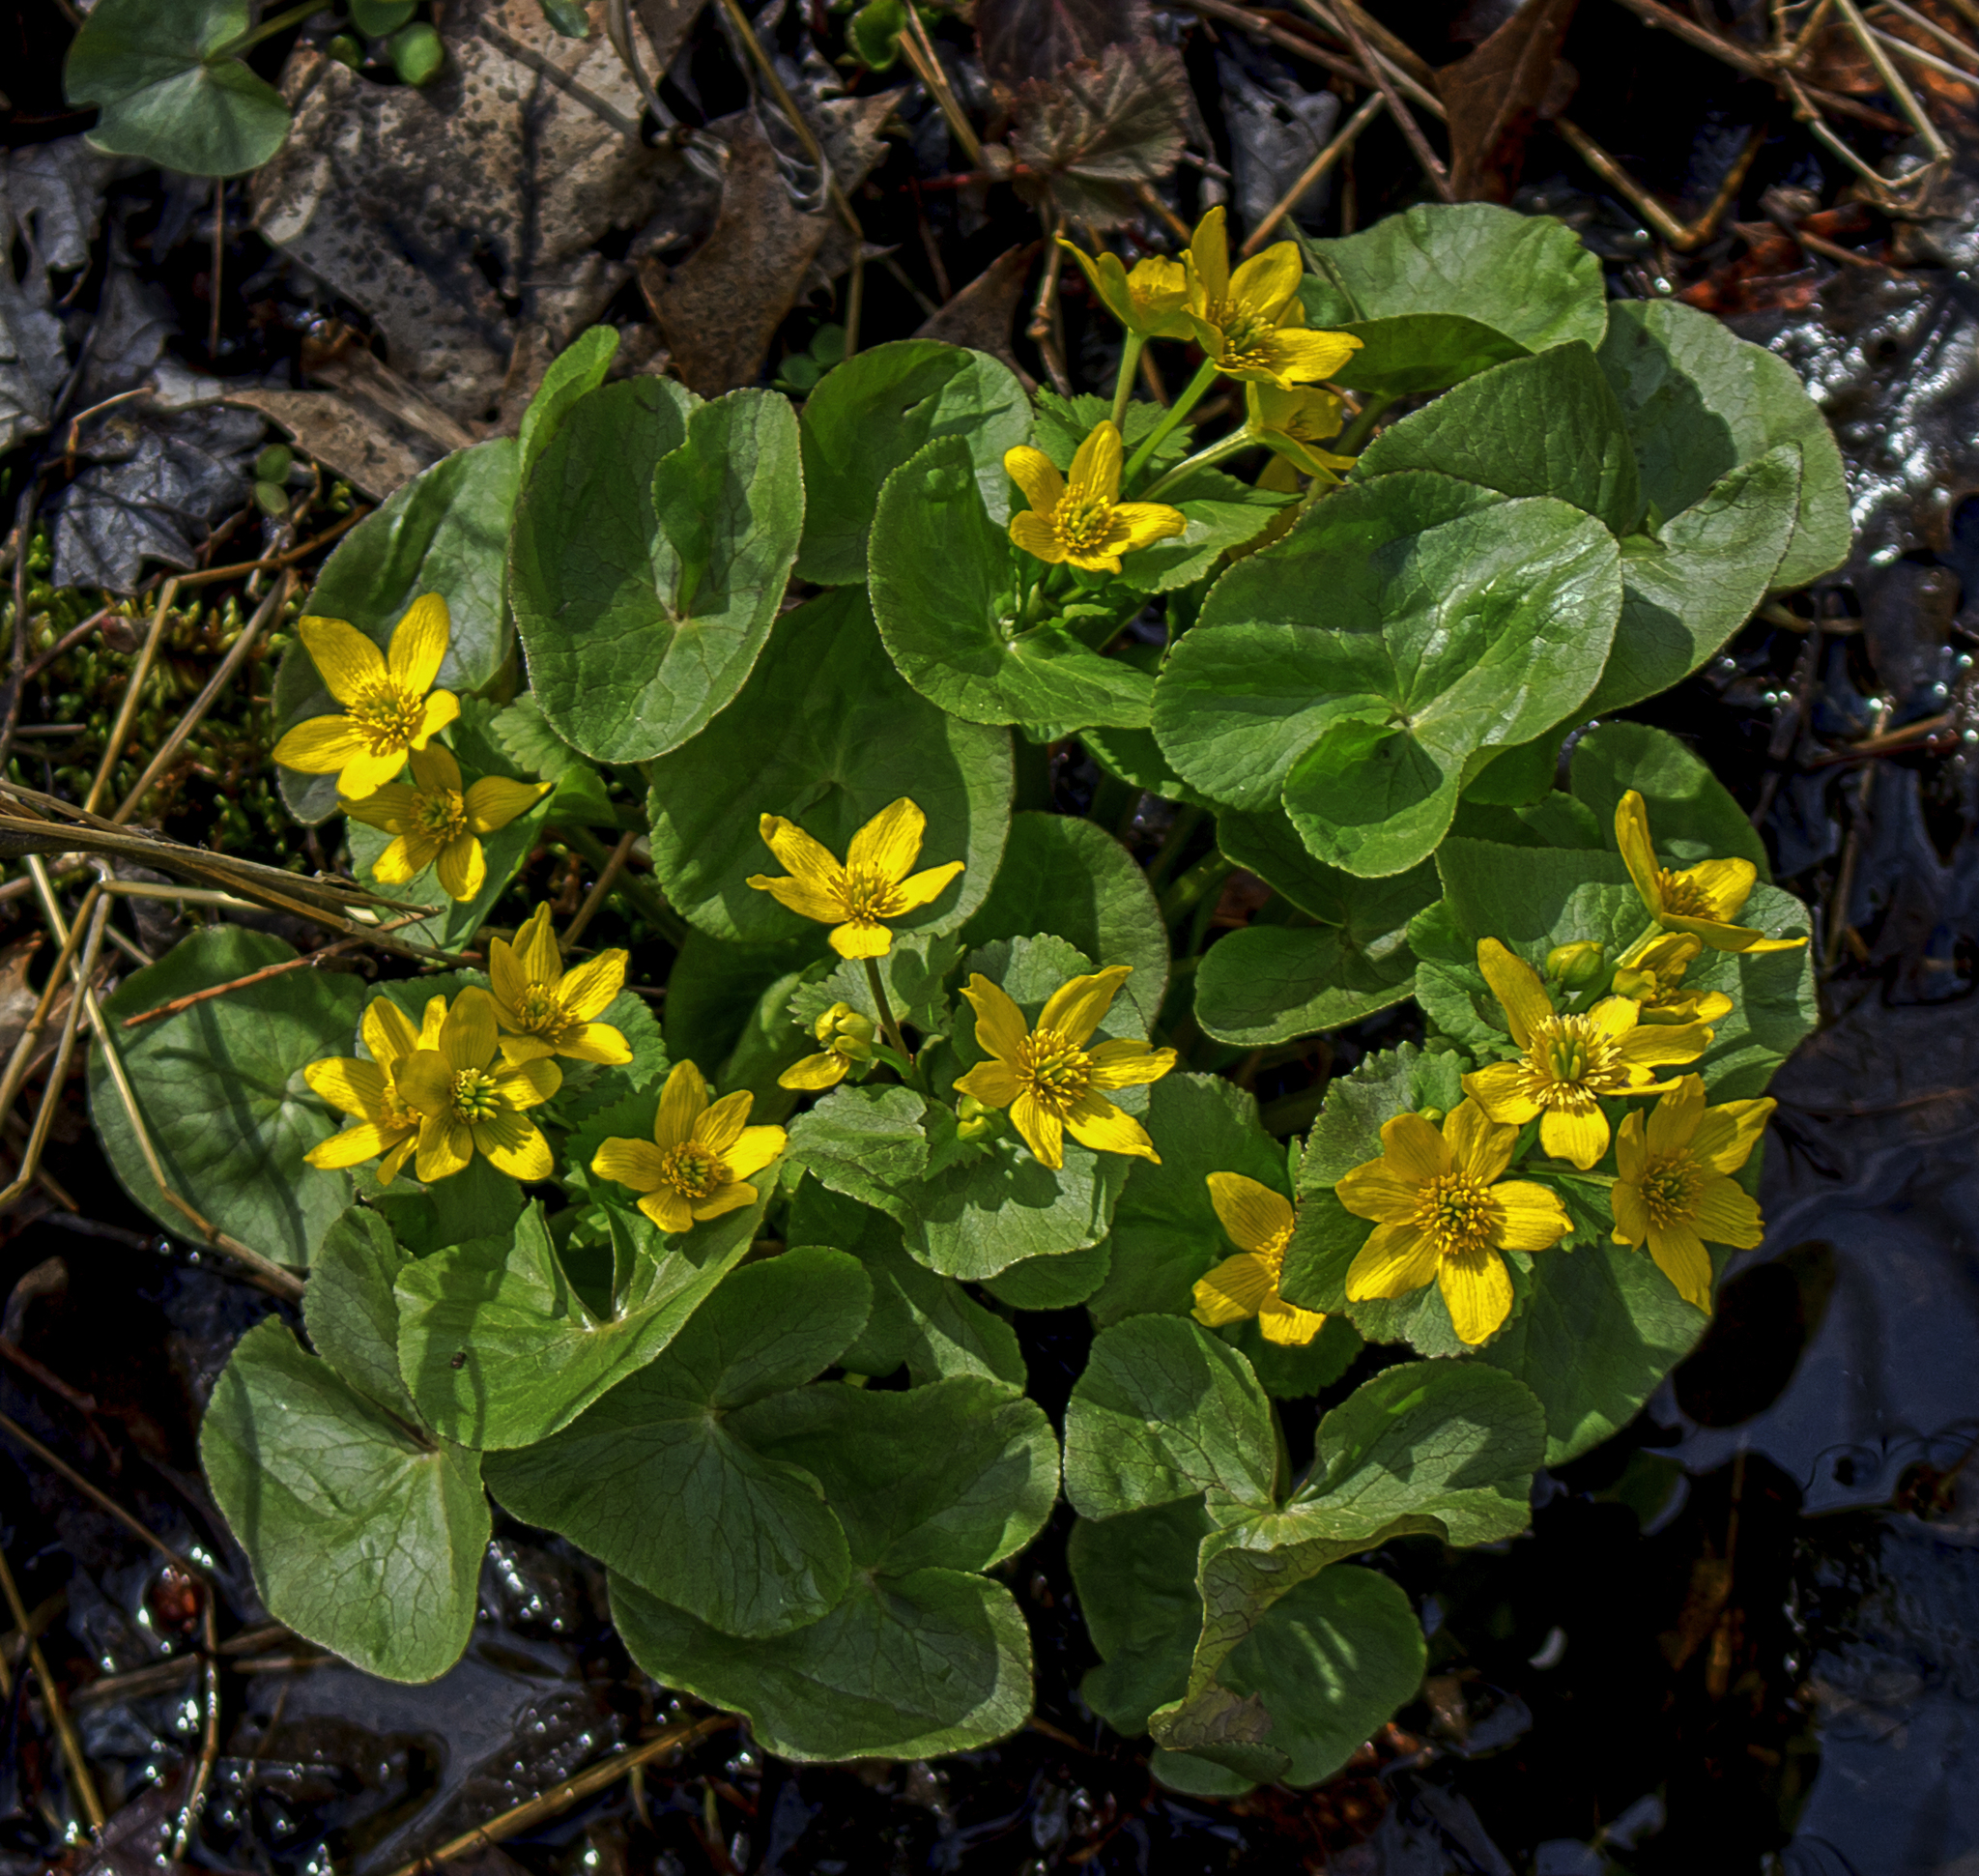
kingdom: Plantae
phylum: Tracheophyta
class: Magnoliopsida
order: Ranunculales
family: Ranunculaceae
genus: Caltha
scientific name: Caltha palustris
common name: Marsh marigold
